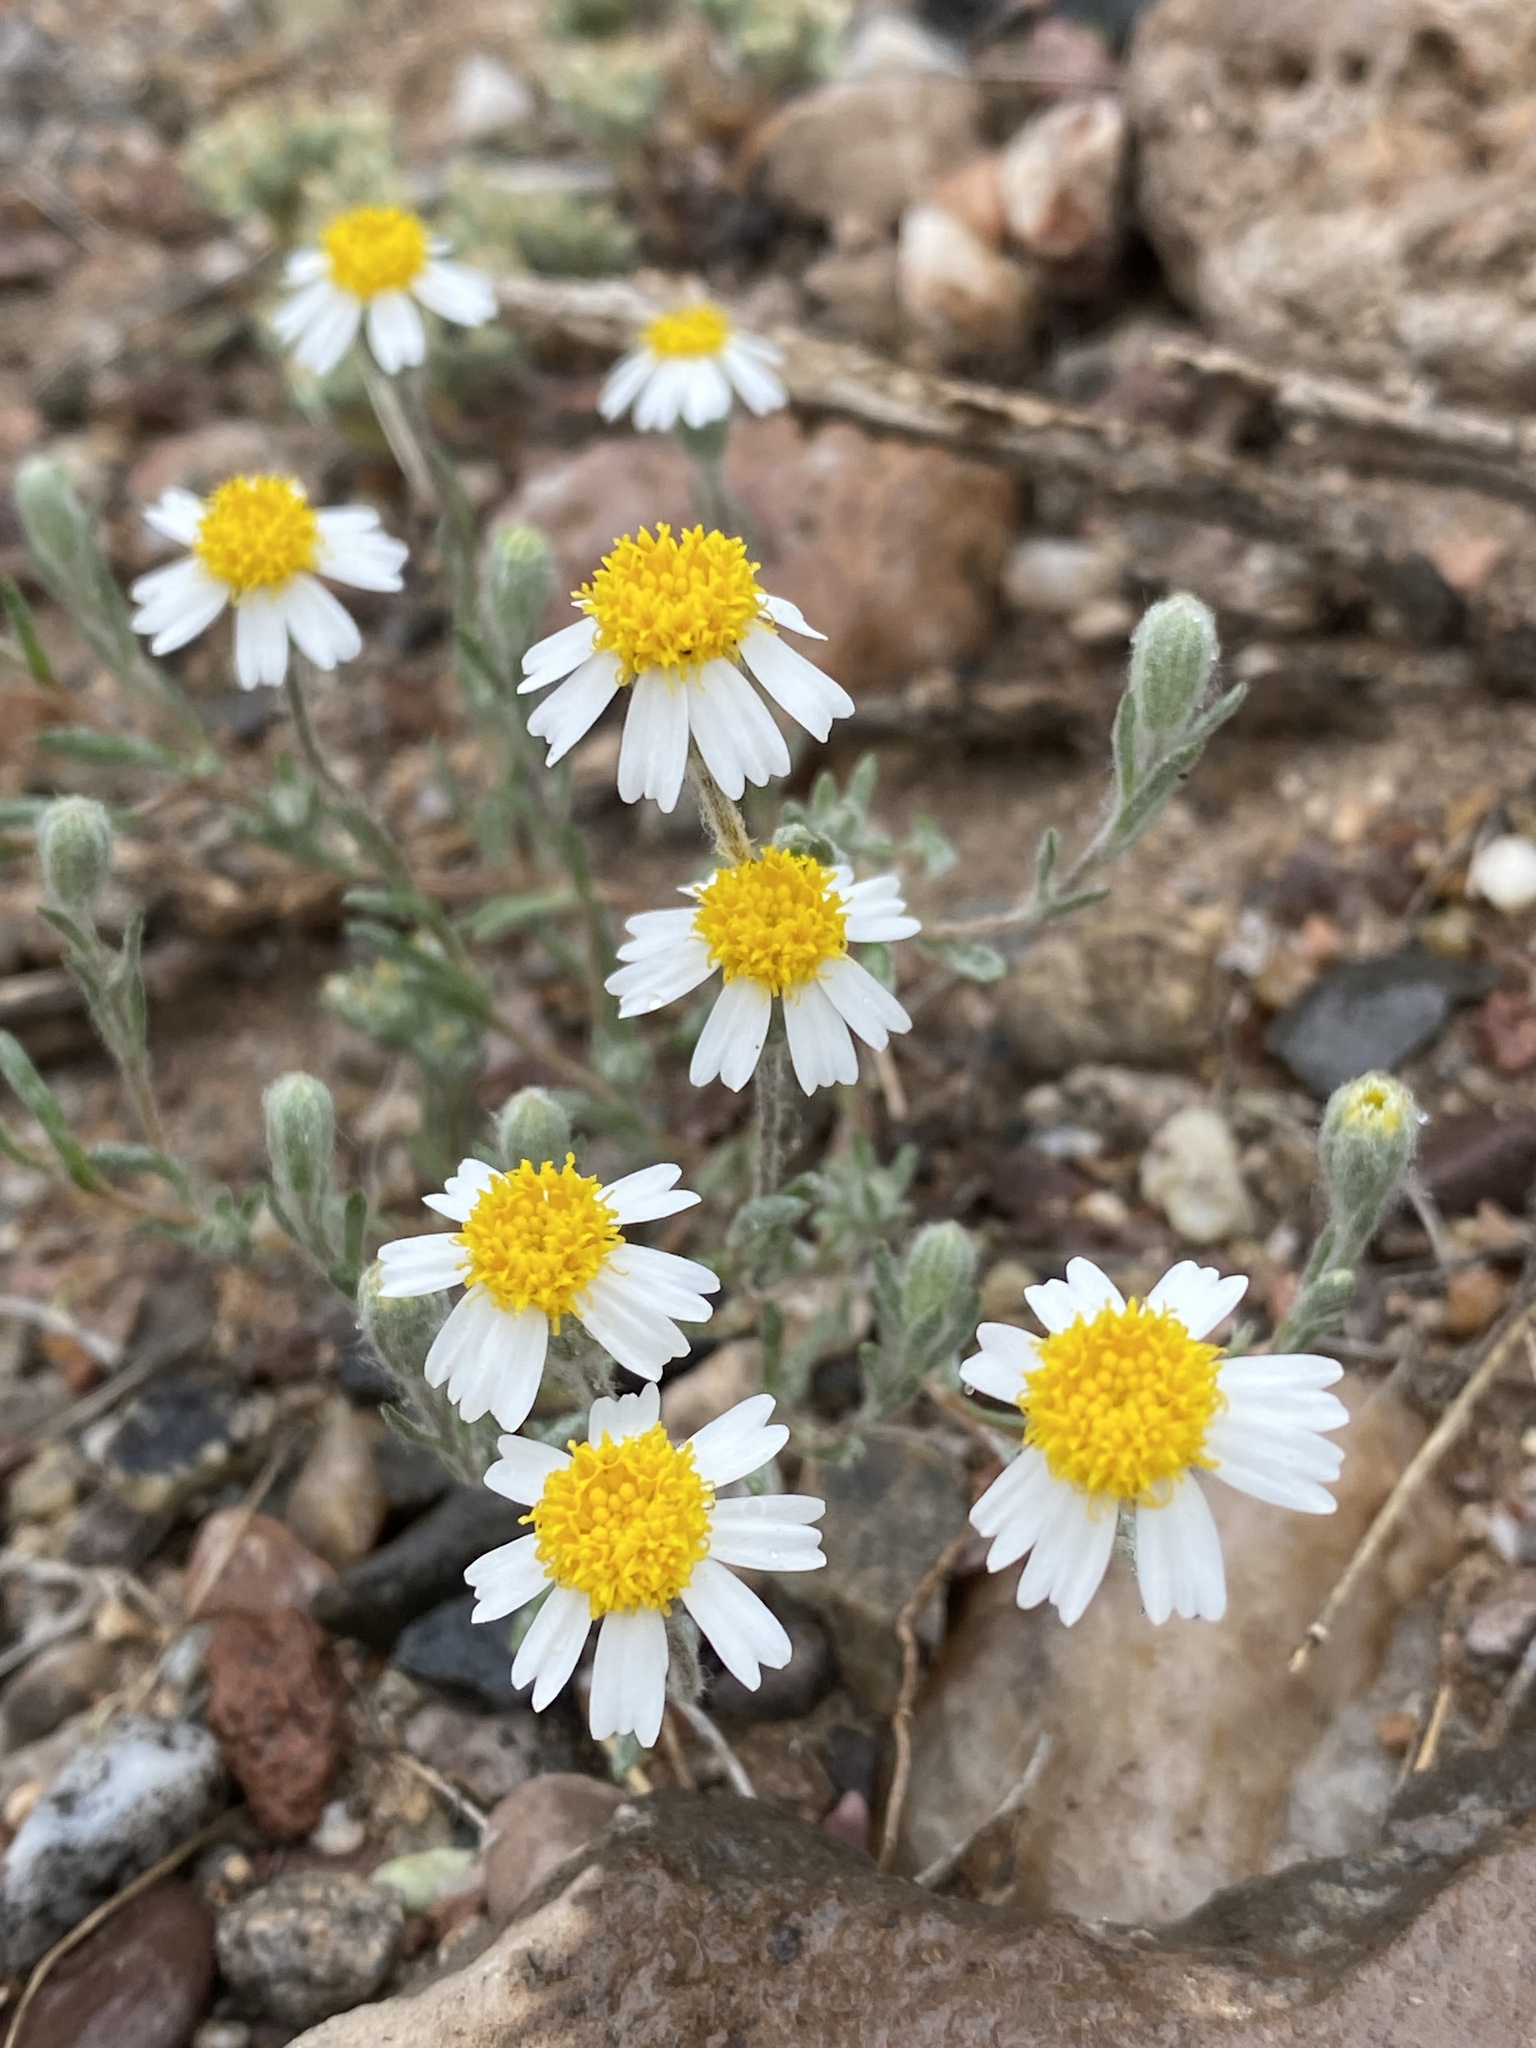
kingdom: Plantae
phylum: Tracheophyta
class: Magnoliopsida
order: Asterales
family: Asteraceae
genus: Eriophyllum
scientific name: Eriophyllum lanosum
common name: White easter-bonnets
